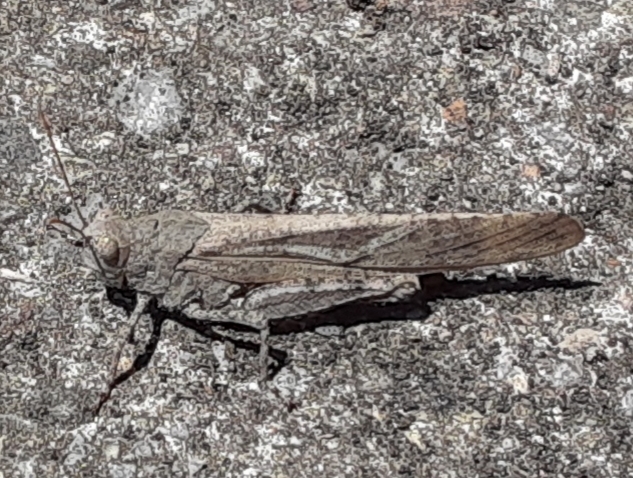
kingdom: Animalia
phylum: Arthropoda
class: Insecta
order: Orthoptera
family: Acrididae
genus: Dissosteira
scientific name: Dissosteira carolina
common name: Carolina grasshopper
